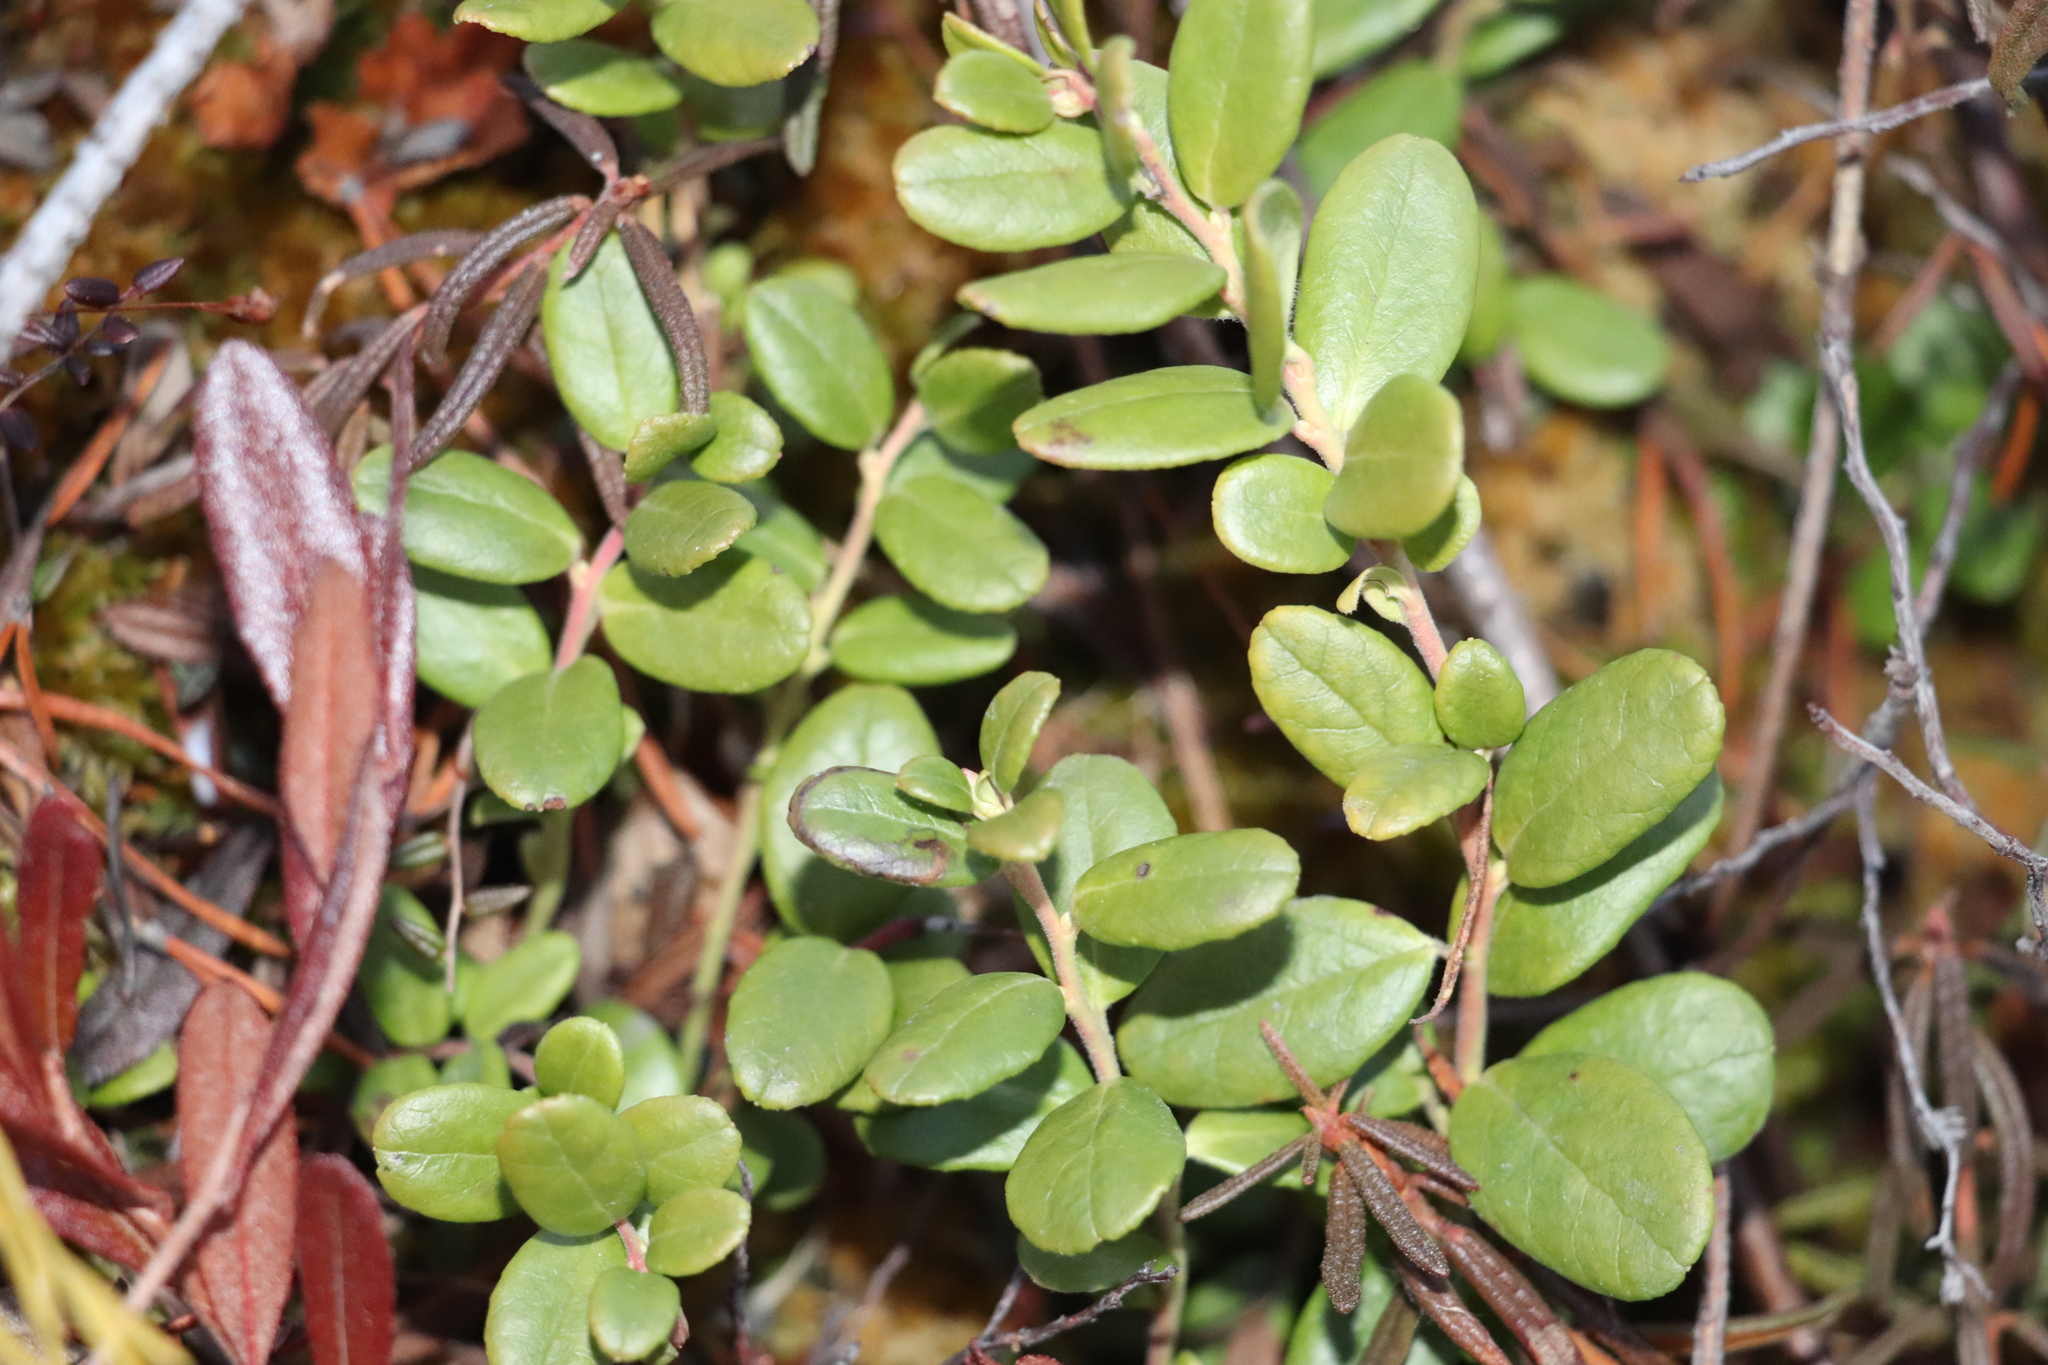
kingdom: Plantae
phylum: Tracheophyta
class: Magnoliopsida
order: Ericales
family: Ericaceae
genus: Vaccinium
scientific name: Vaccinium vitis-idaea
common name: Cowberry
